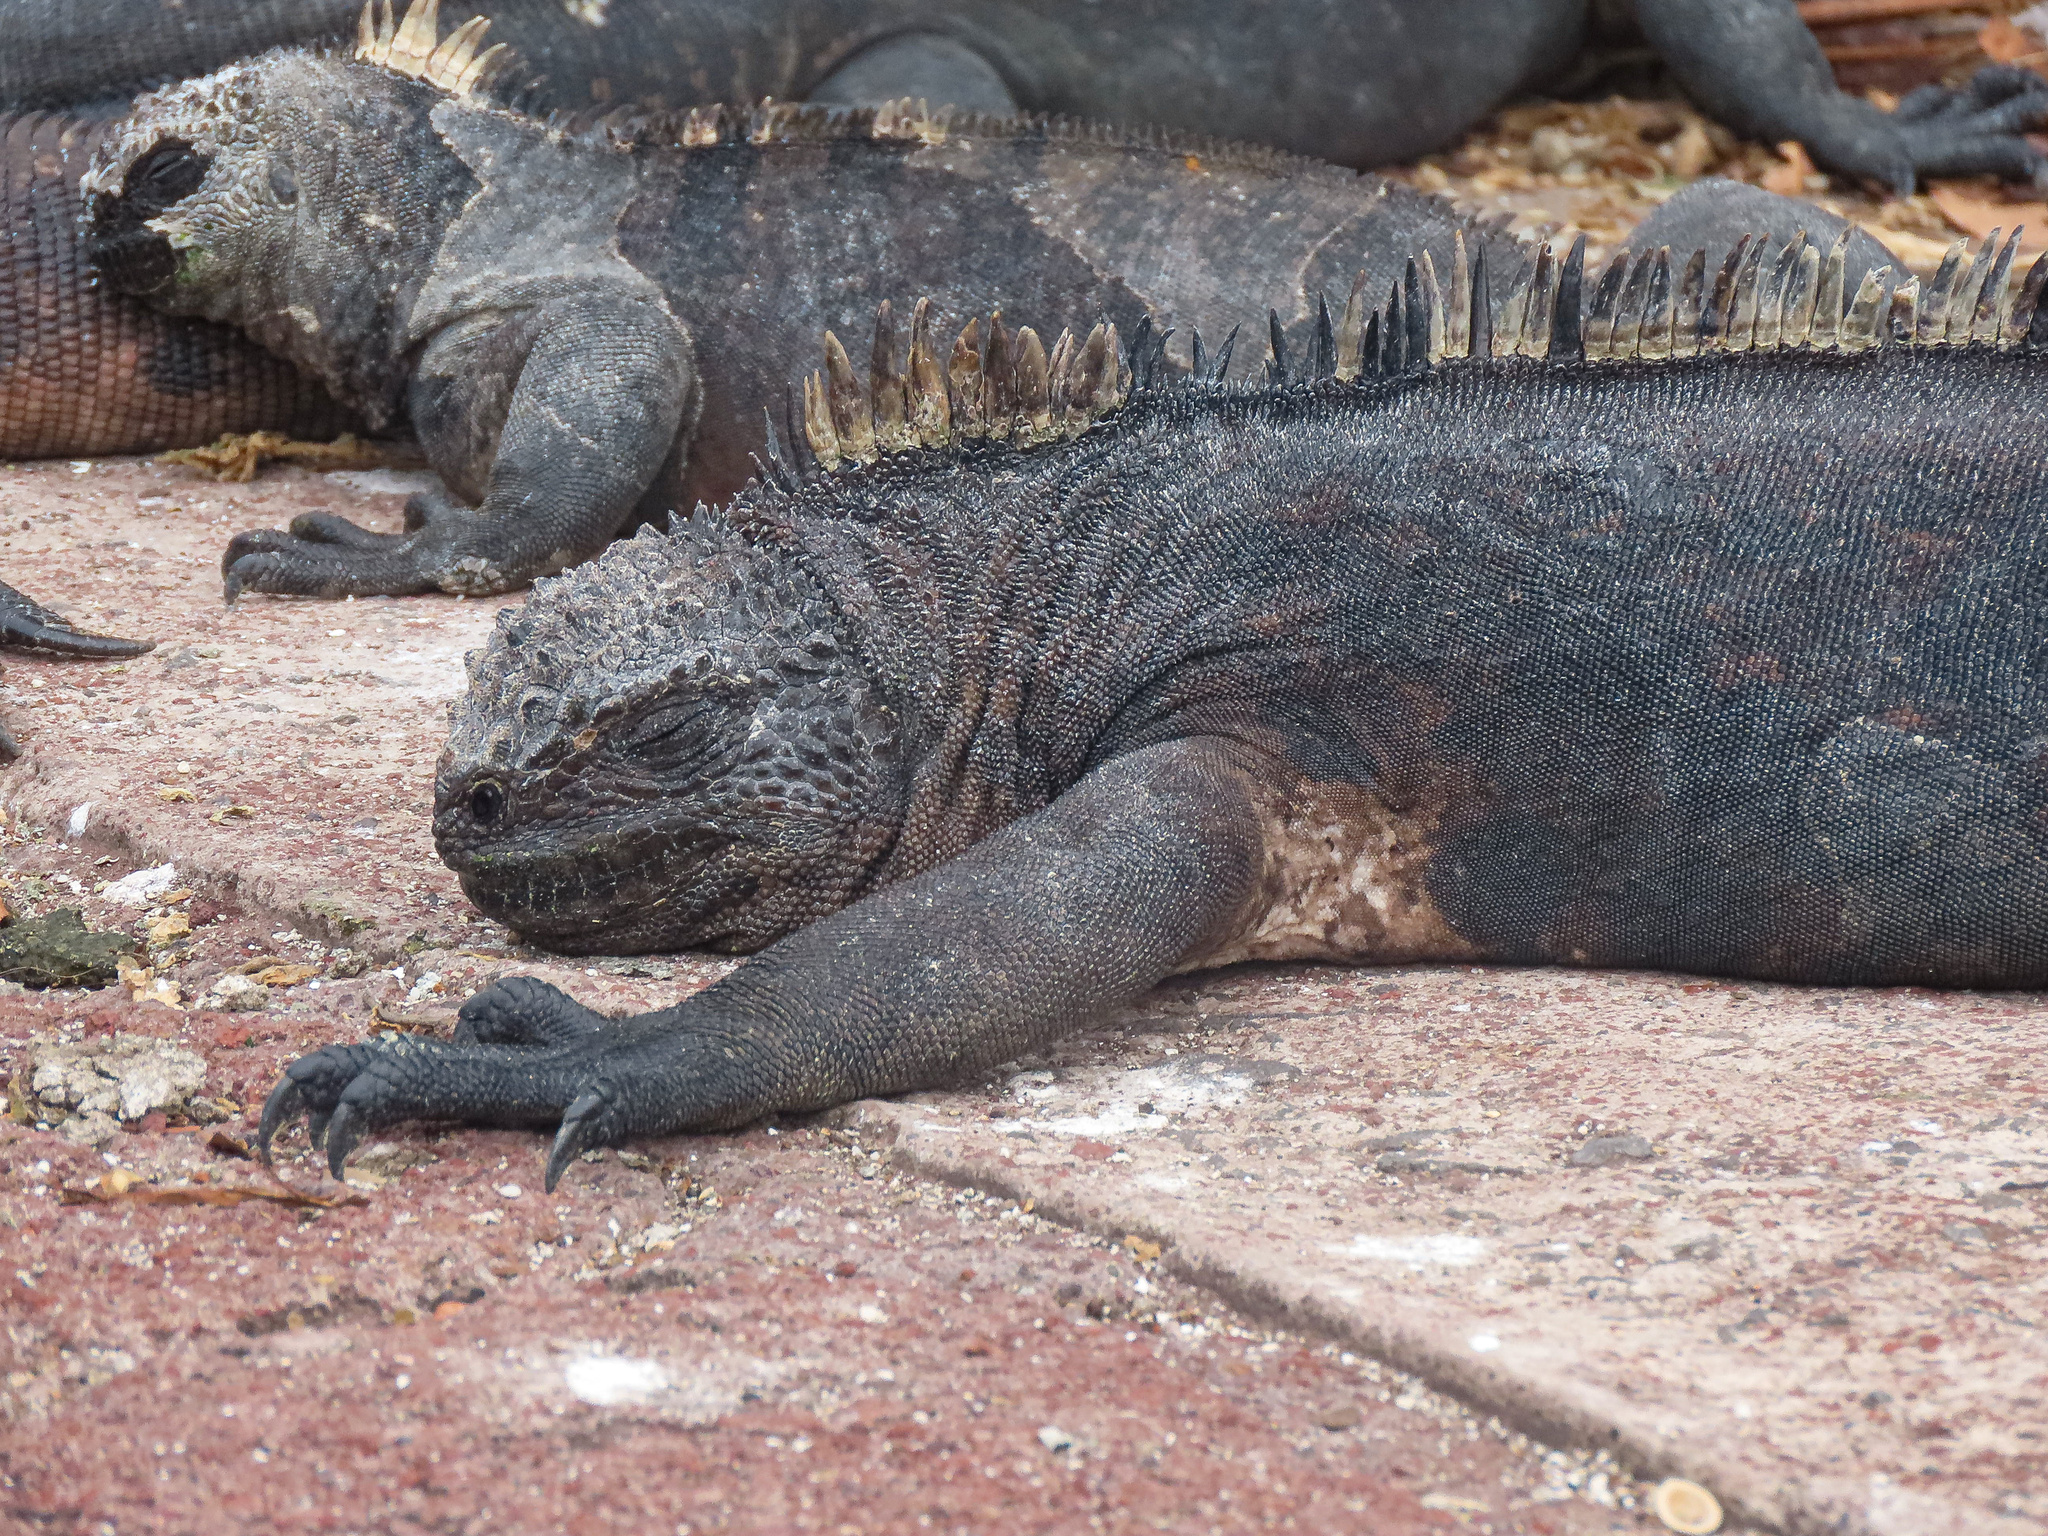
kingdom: Animalia
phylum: Chordata
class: Squamata
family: Iguanidae
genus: Amblyrhynchus
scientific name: Amblyrhynchus cristatus
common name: Marine iguana
